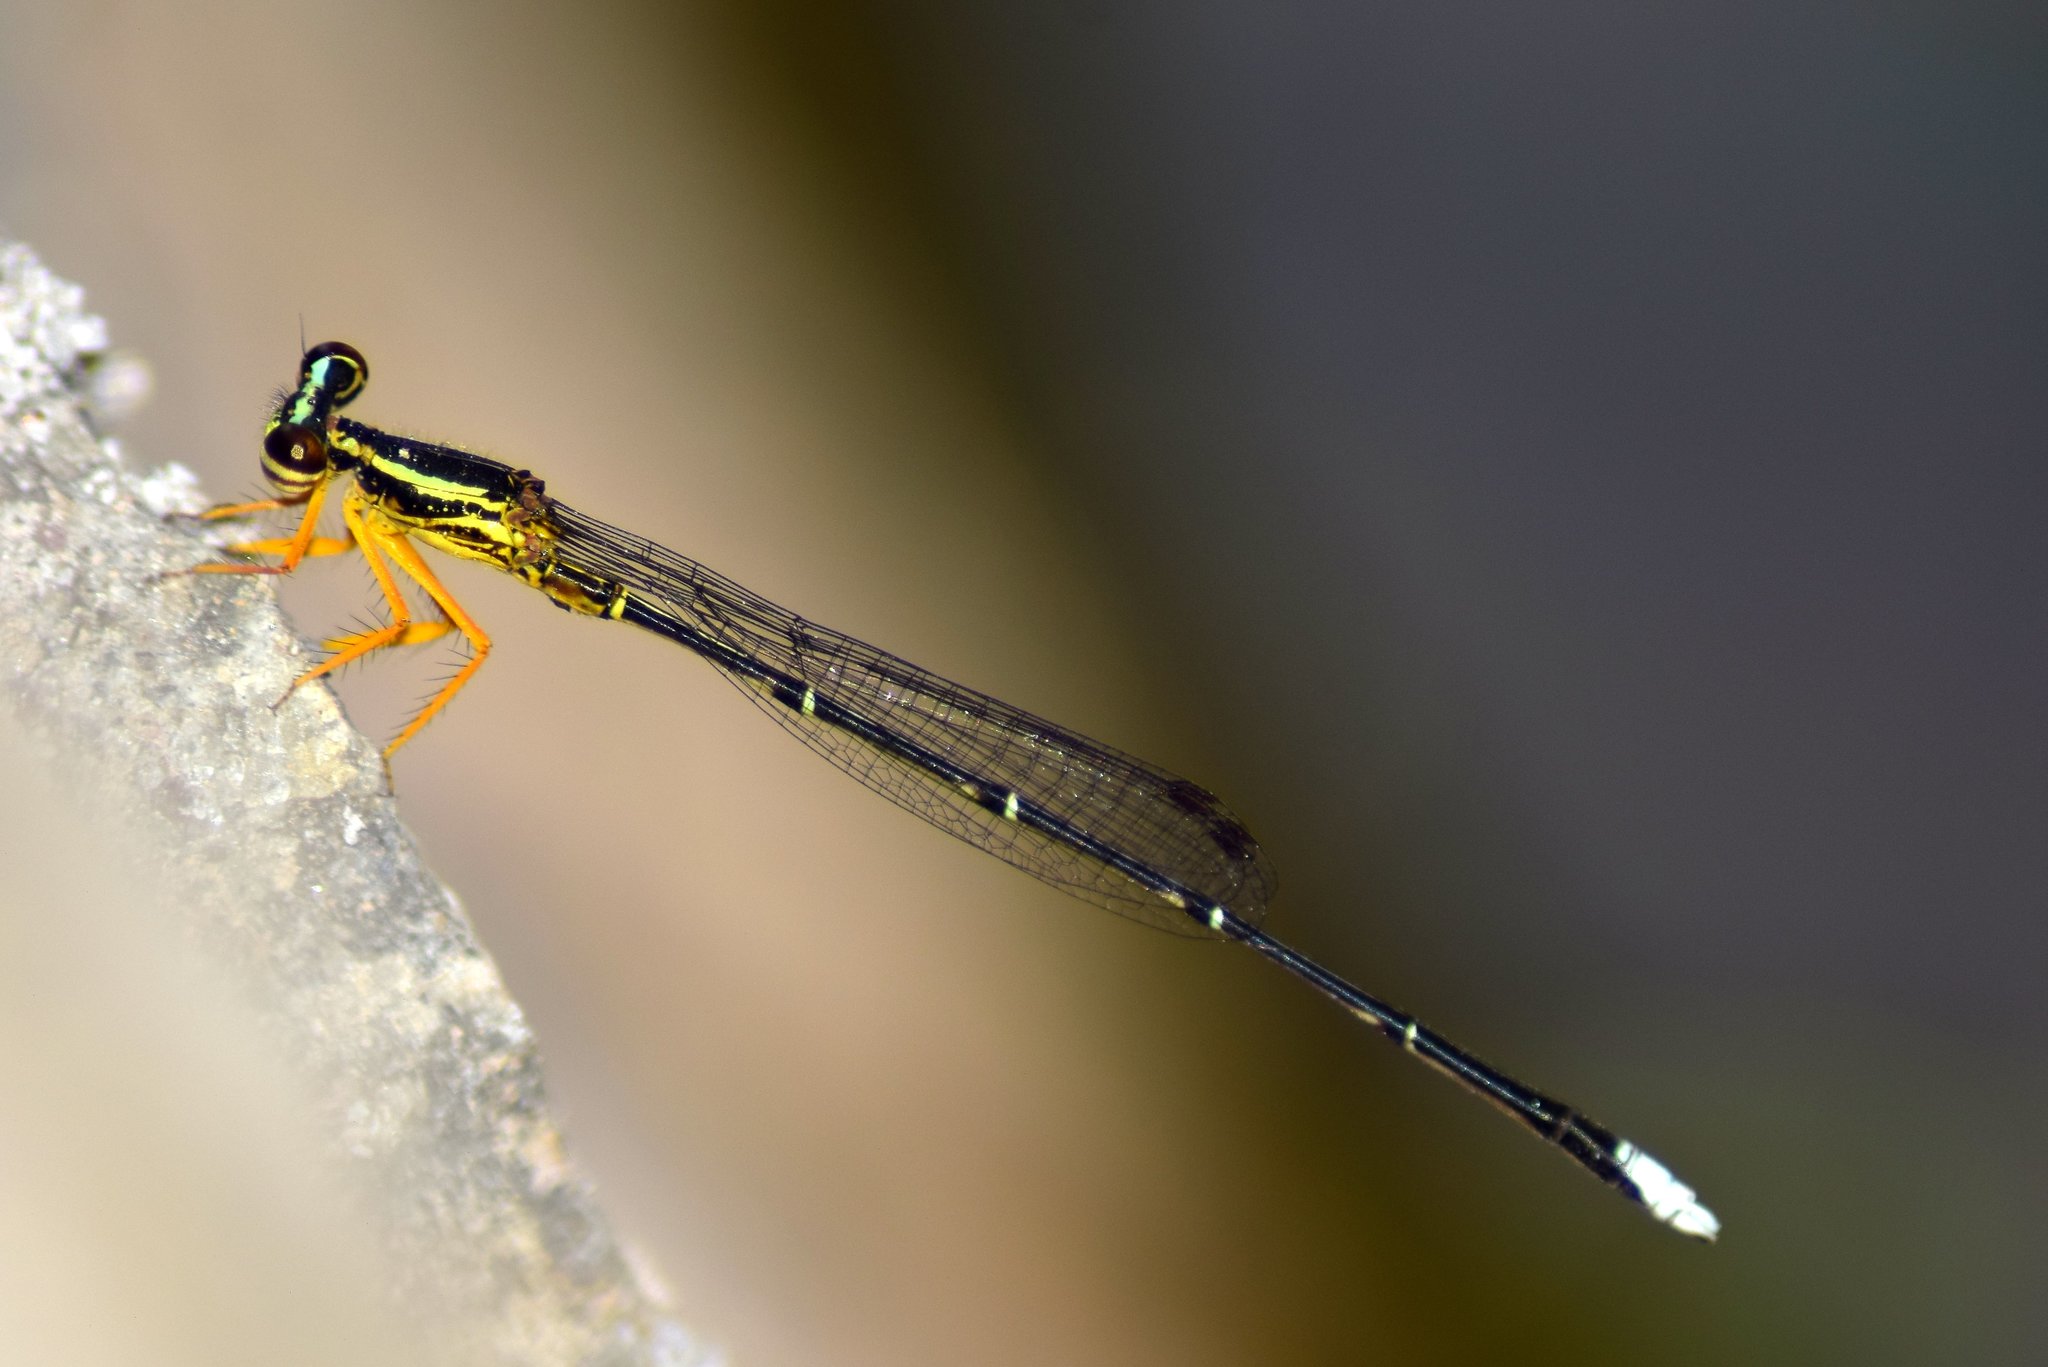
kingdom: Animalia
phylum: Arthropoda
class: Insecta
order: Odonata
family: Platycnemididae
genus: Copera
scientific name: Copera marginipes
